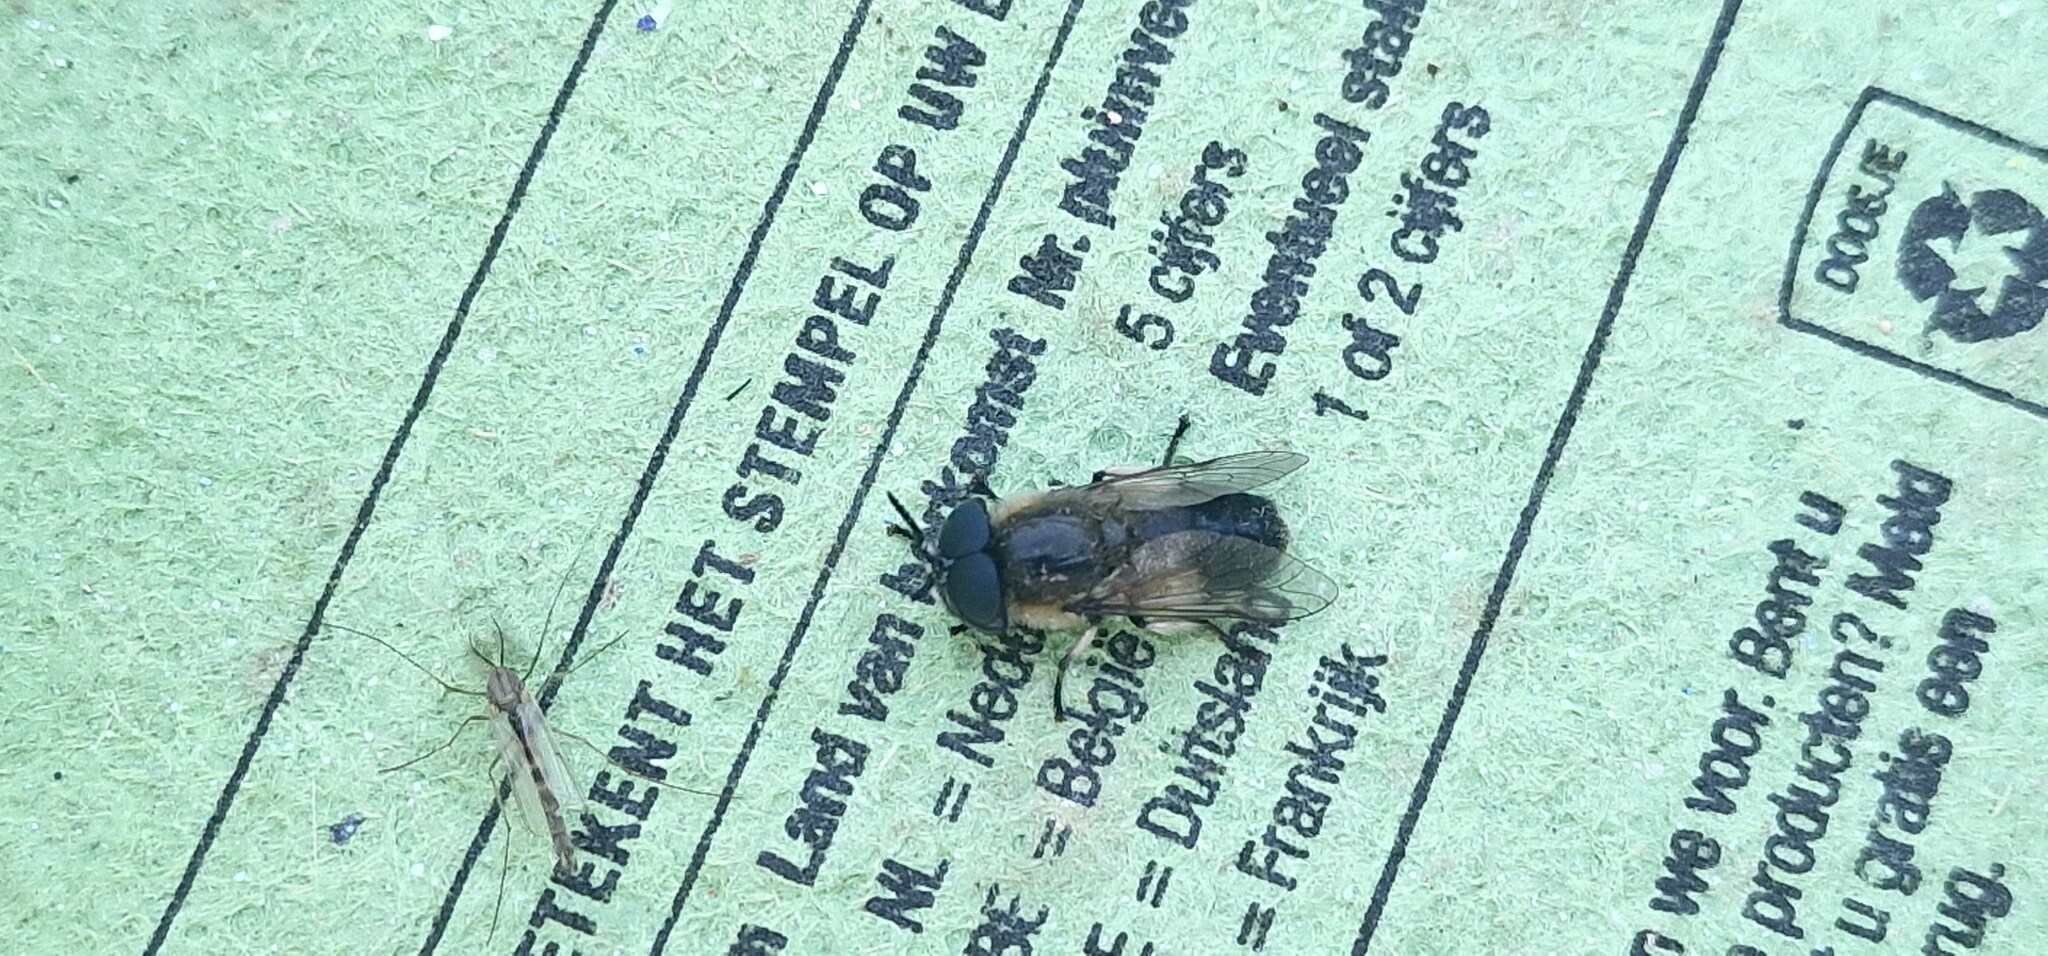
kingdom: Animalia
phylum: Arthropoda
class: Insecta
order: Diptera
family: Tabanidae
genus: Heptatoma
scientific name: Heptatoma pellucens
